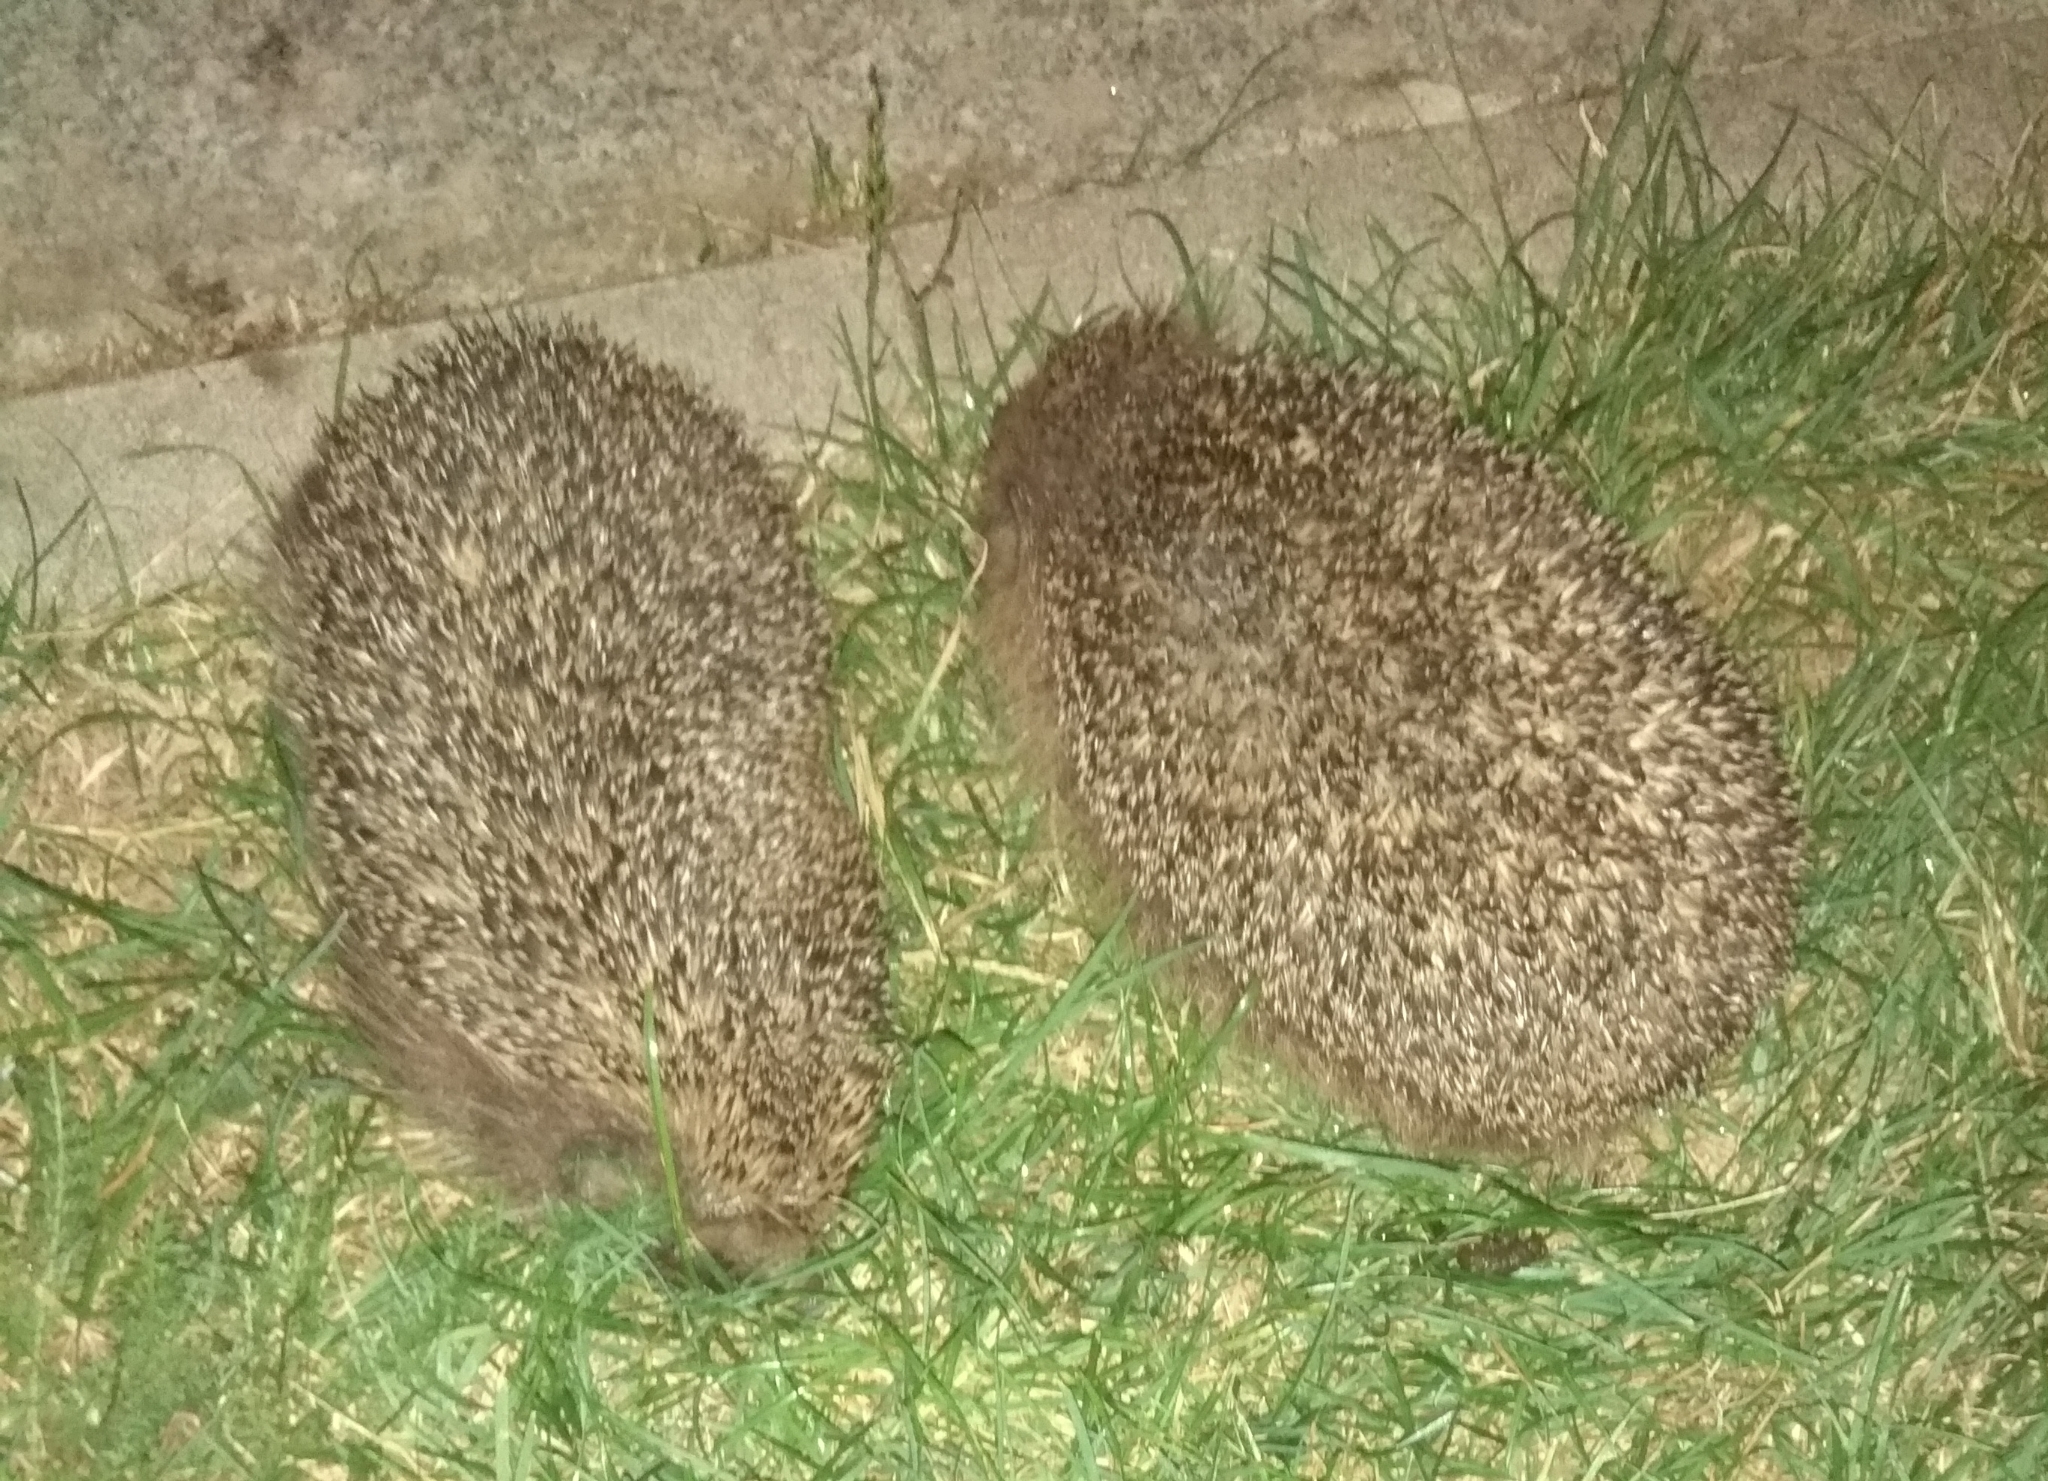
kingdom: Animalia
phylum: Chordata
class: Mammalia
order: Erinaceomorpha
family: Erinaceidae
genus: Erinaceus
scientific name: Erinaceus europaeus
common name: West european hedgehog
